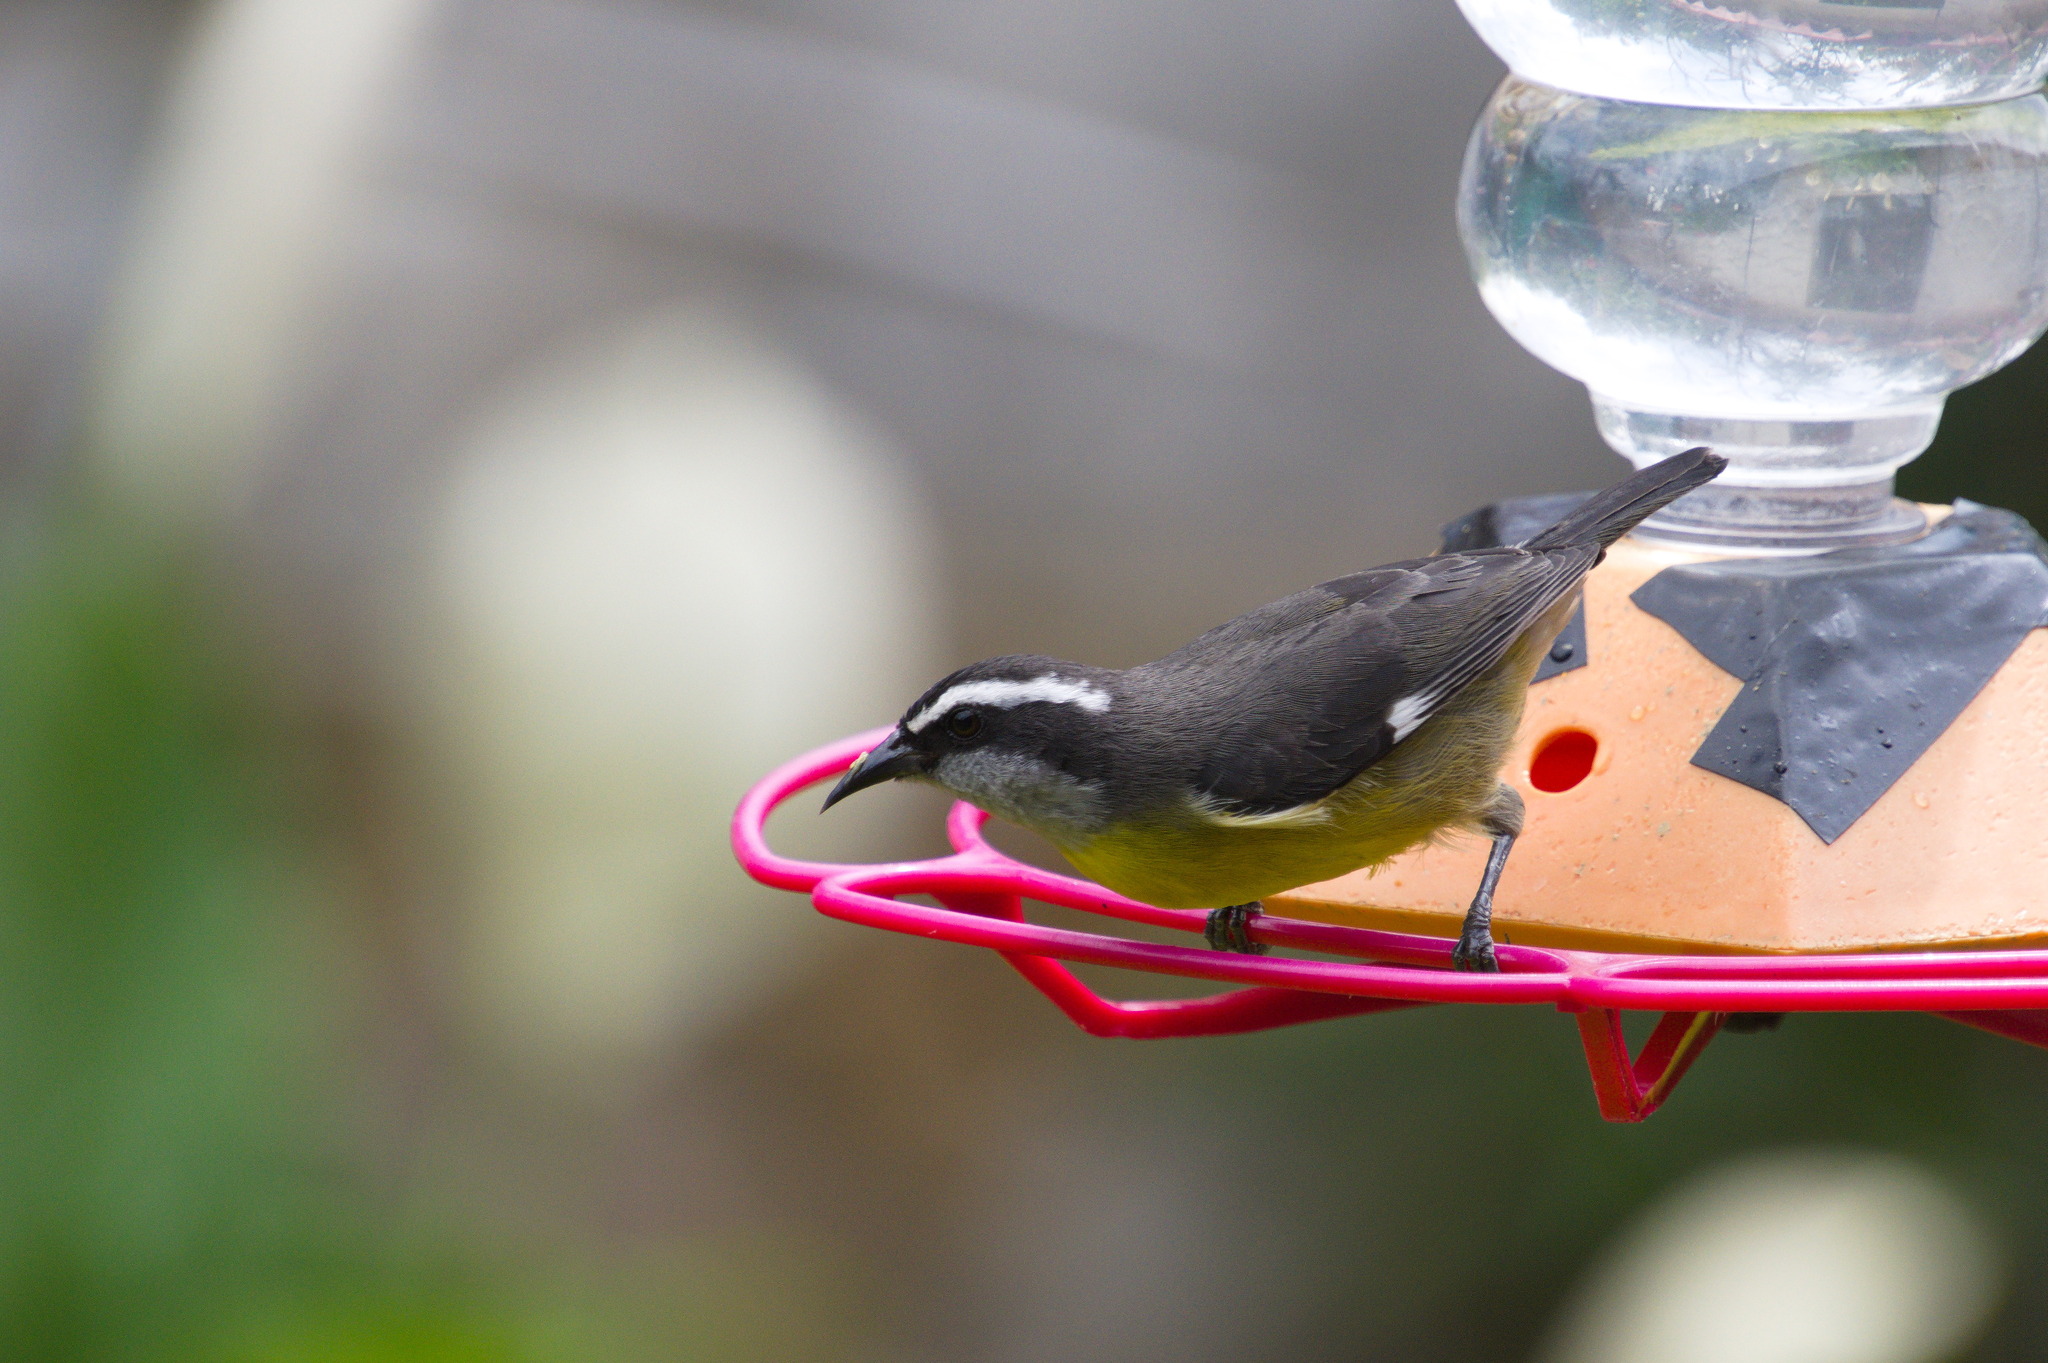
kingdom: Animalia
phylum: Chordata
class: Aves
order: Passeriformes
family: Thraupidae
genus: Coereba
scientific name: Coereba flaveola
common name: Bananaquit
